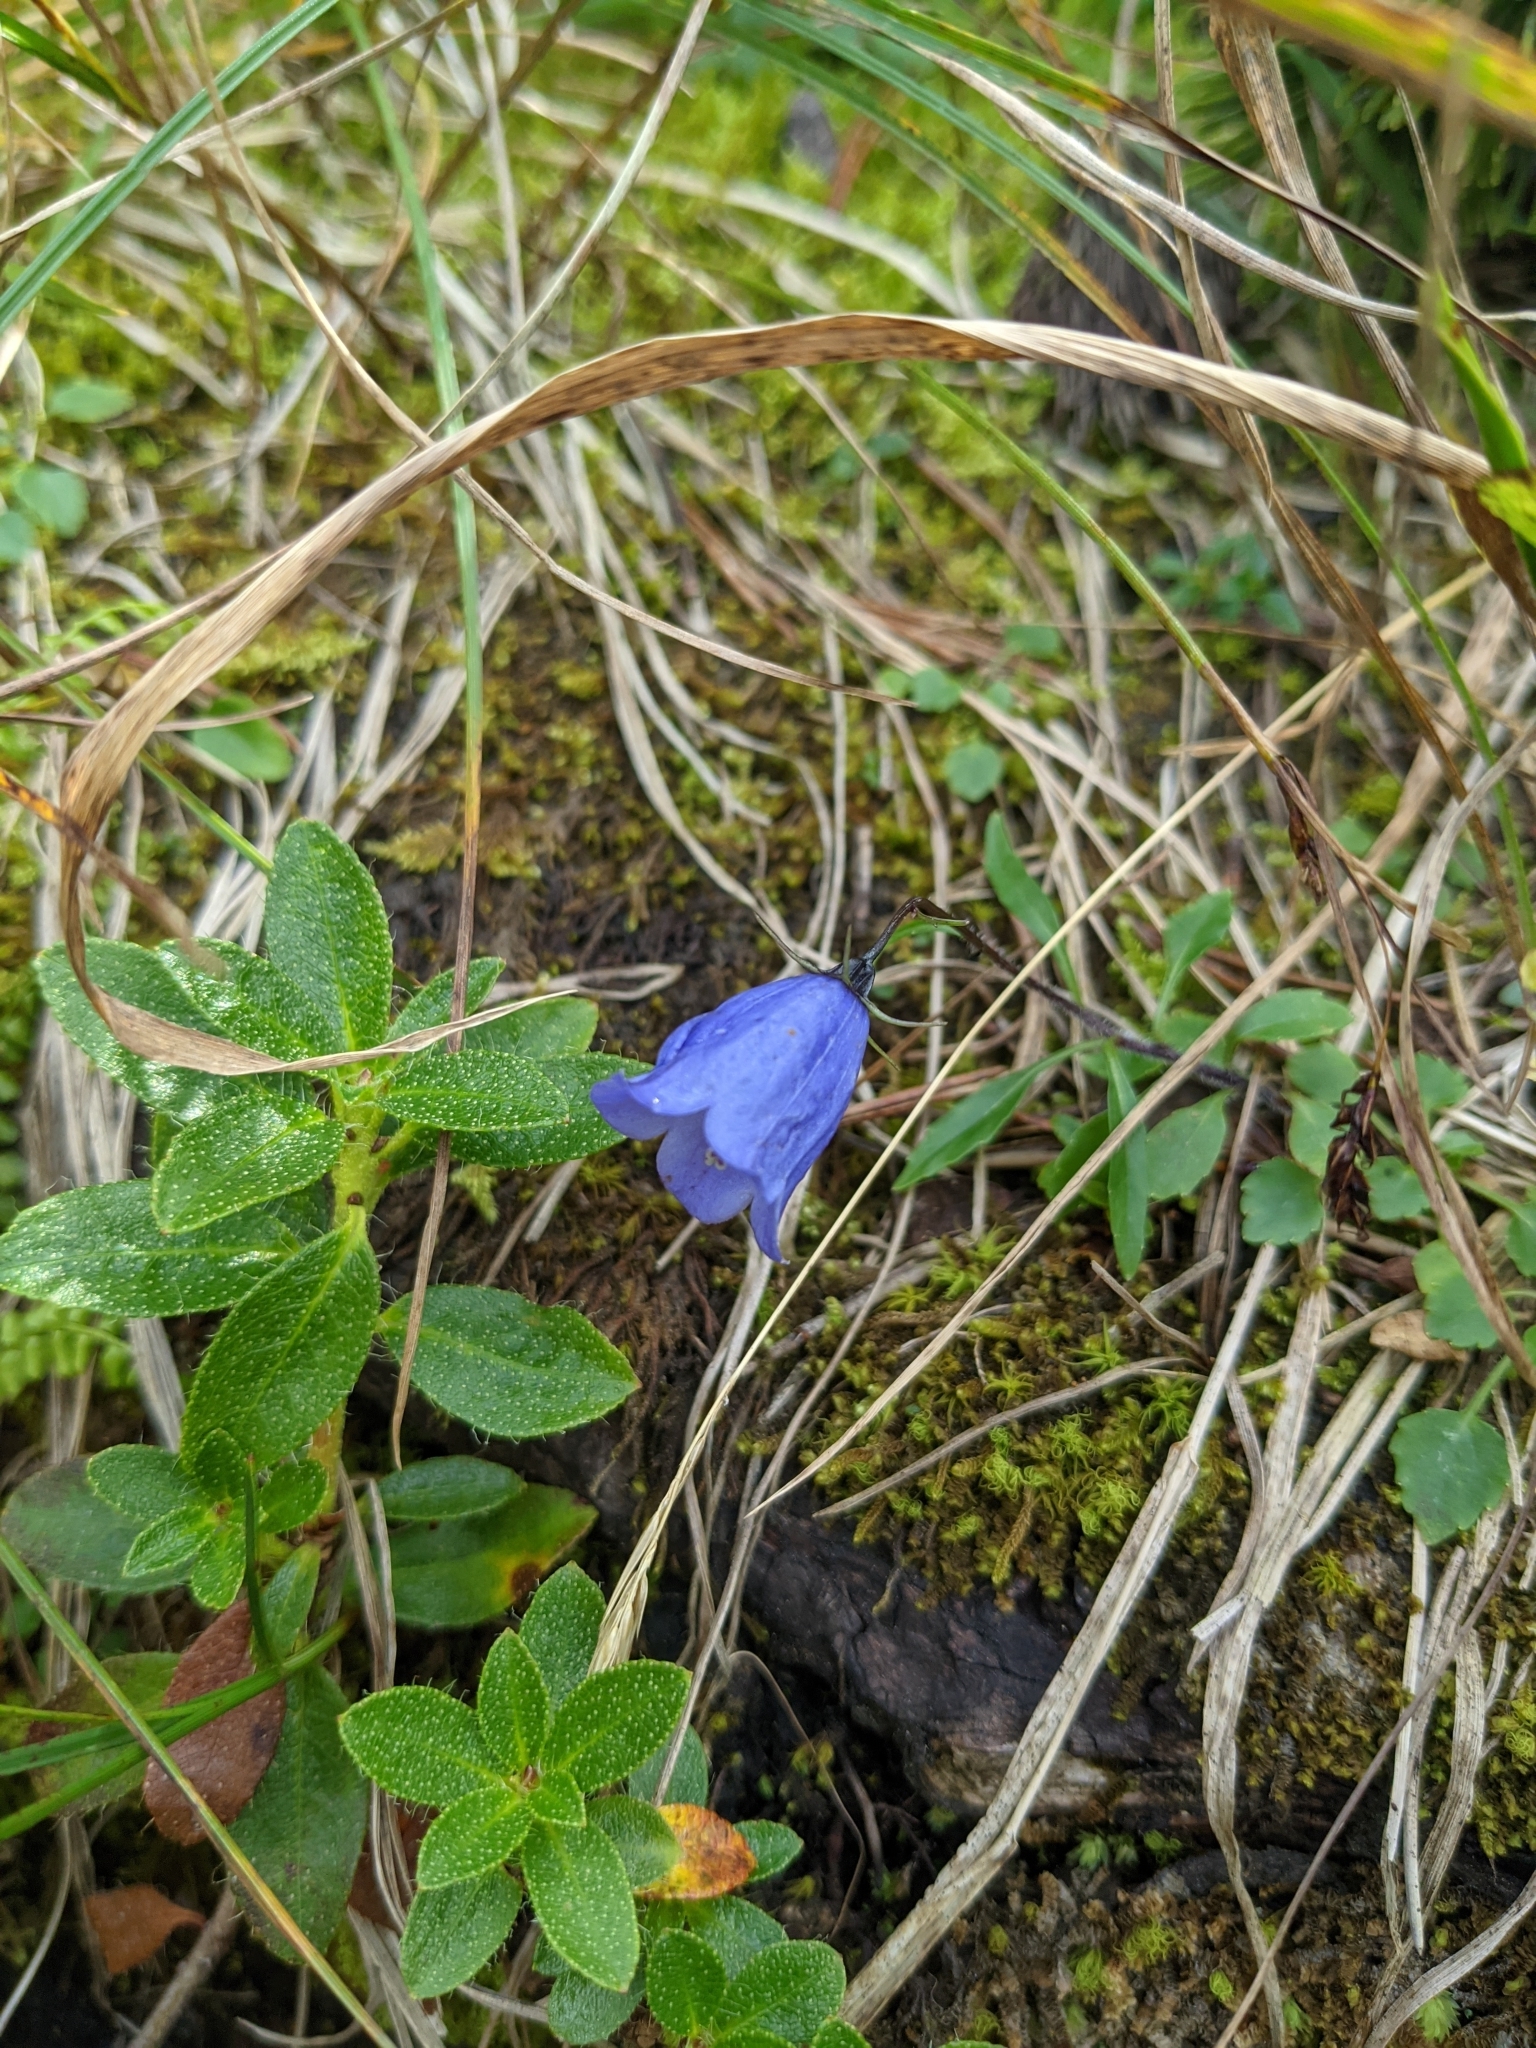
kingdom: Plantae
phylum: Tracheophyta
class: Magnoliopsida
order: Asterales
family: Campanulaceae
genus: Campanula
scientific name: Campanula cochleariifolia
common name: Fairies'-thimbles
